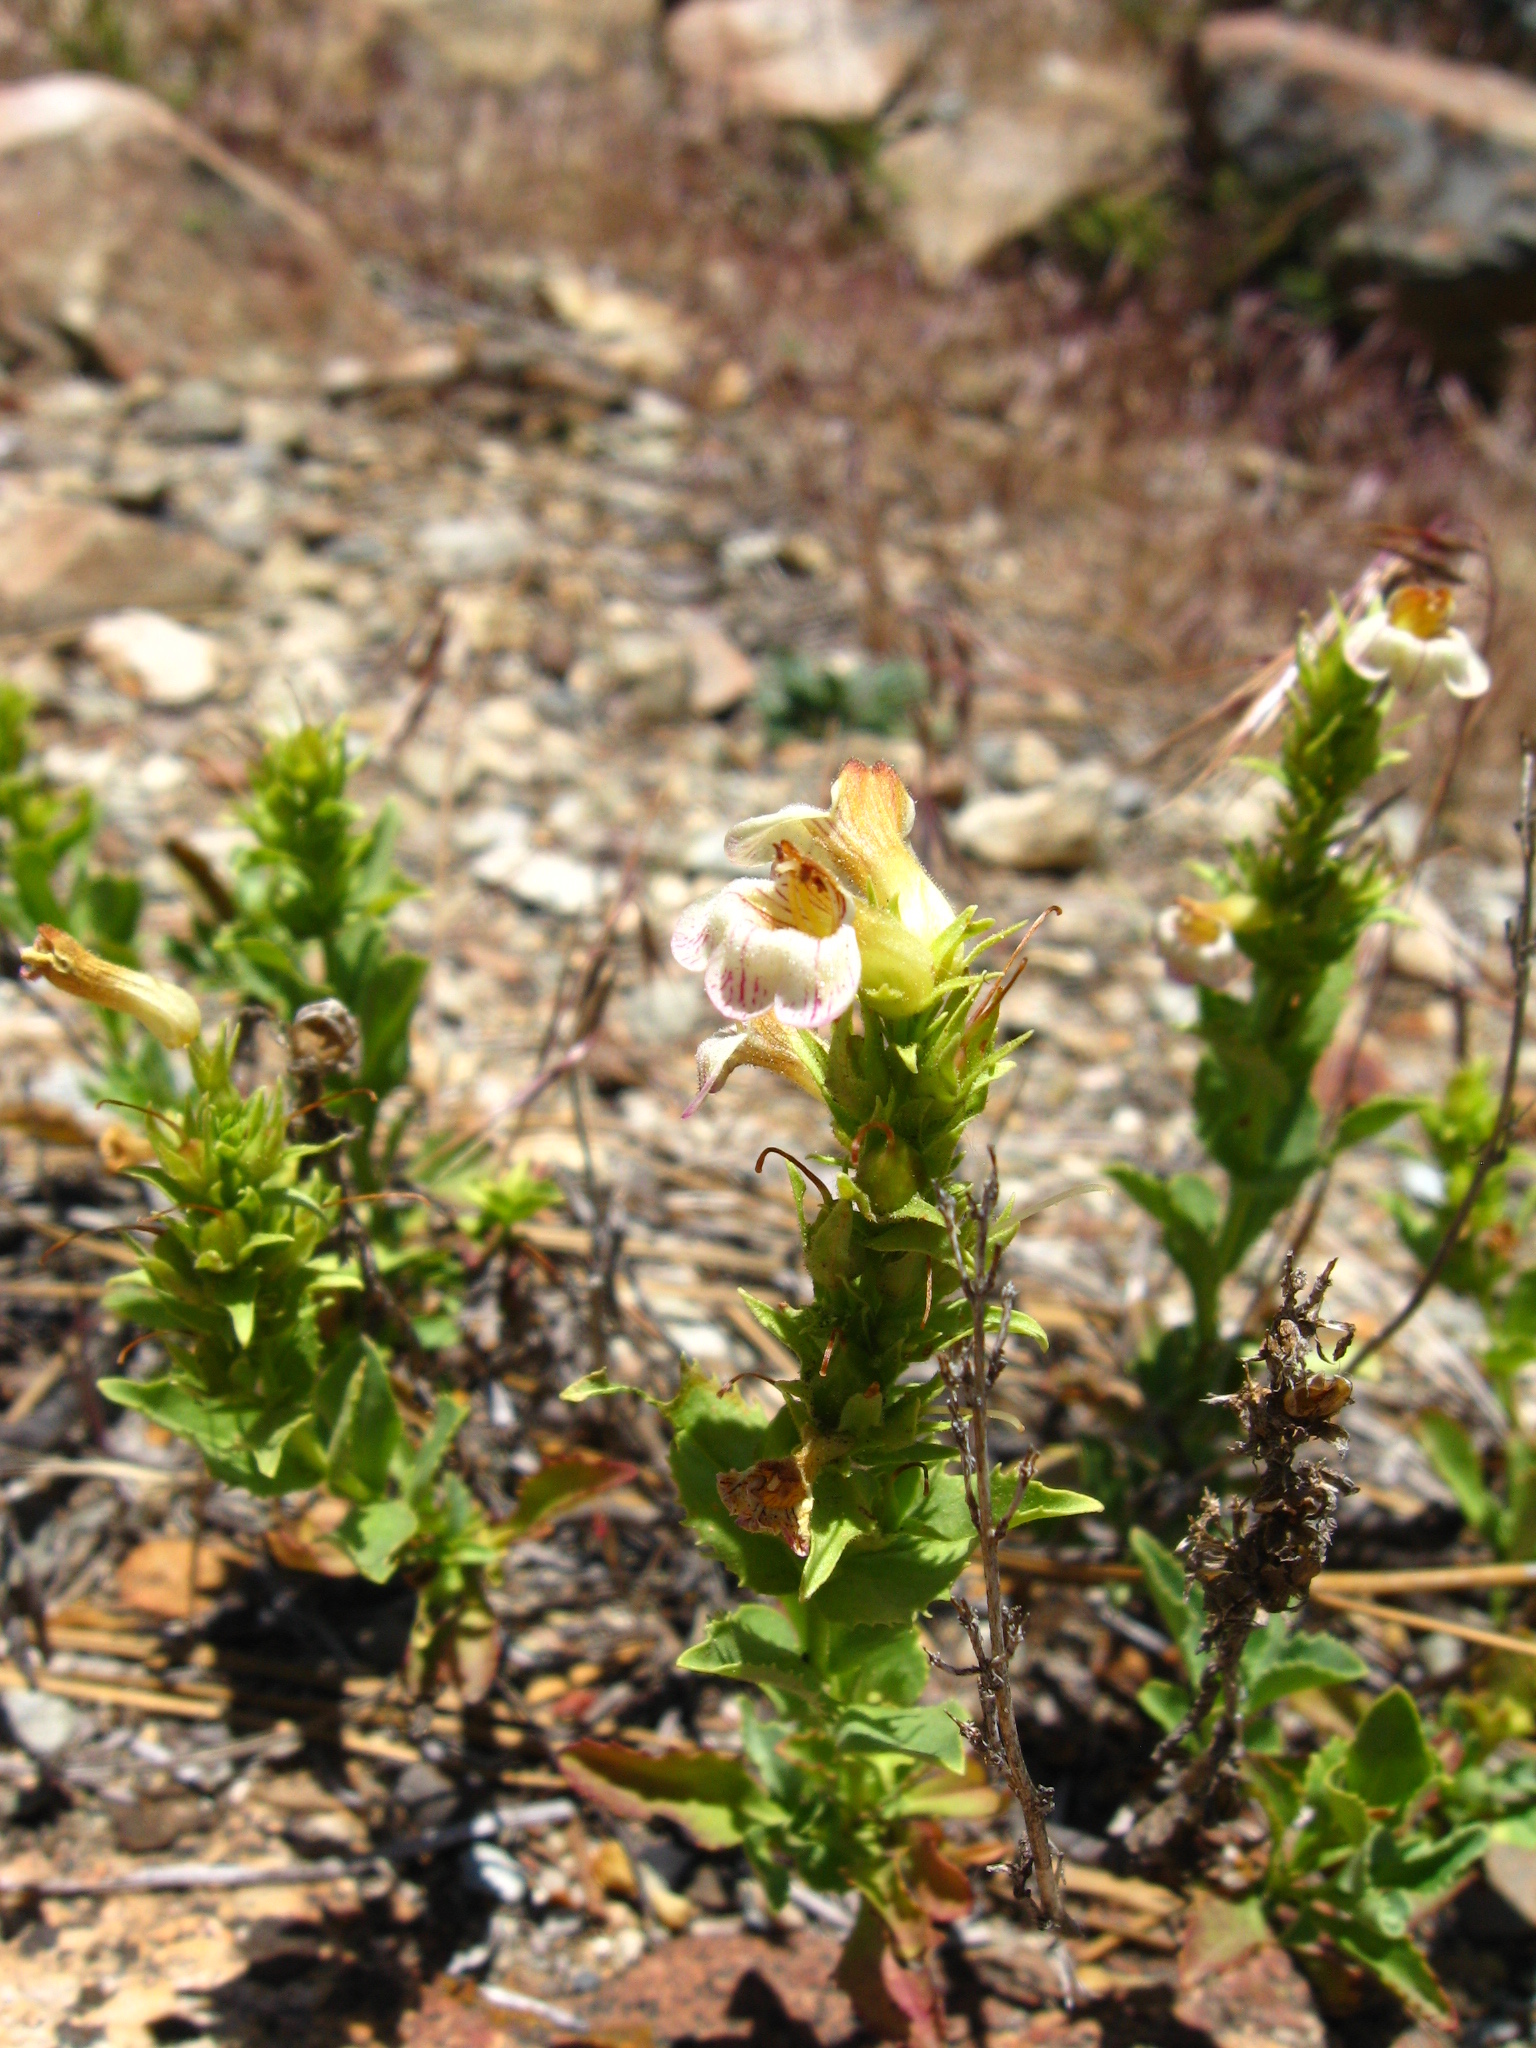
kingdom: Plantae
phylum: Tracheophyta
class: Magnoliopsida
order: Lamiales
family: Plantaginaceae
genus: Penstemon
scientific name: Penstemon deustus
